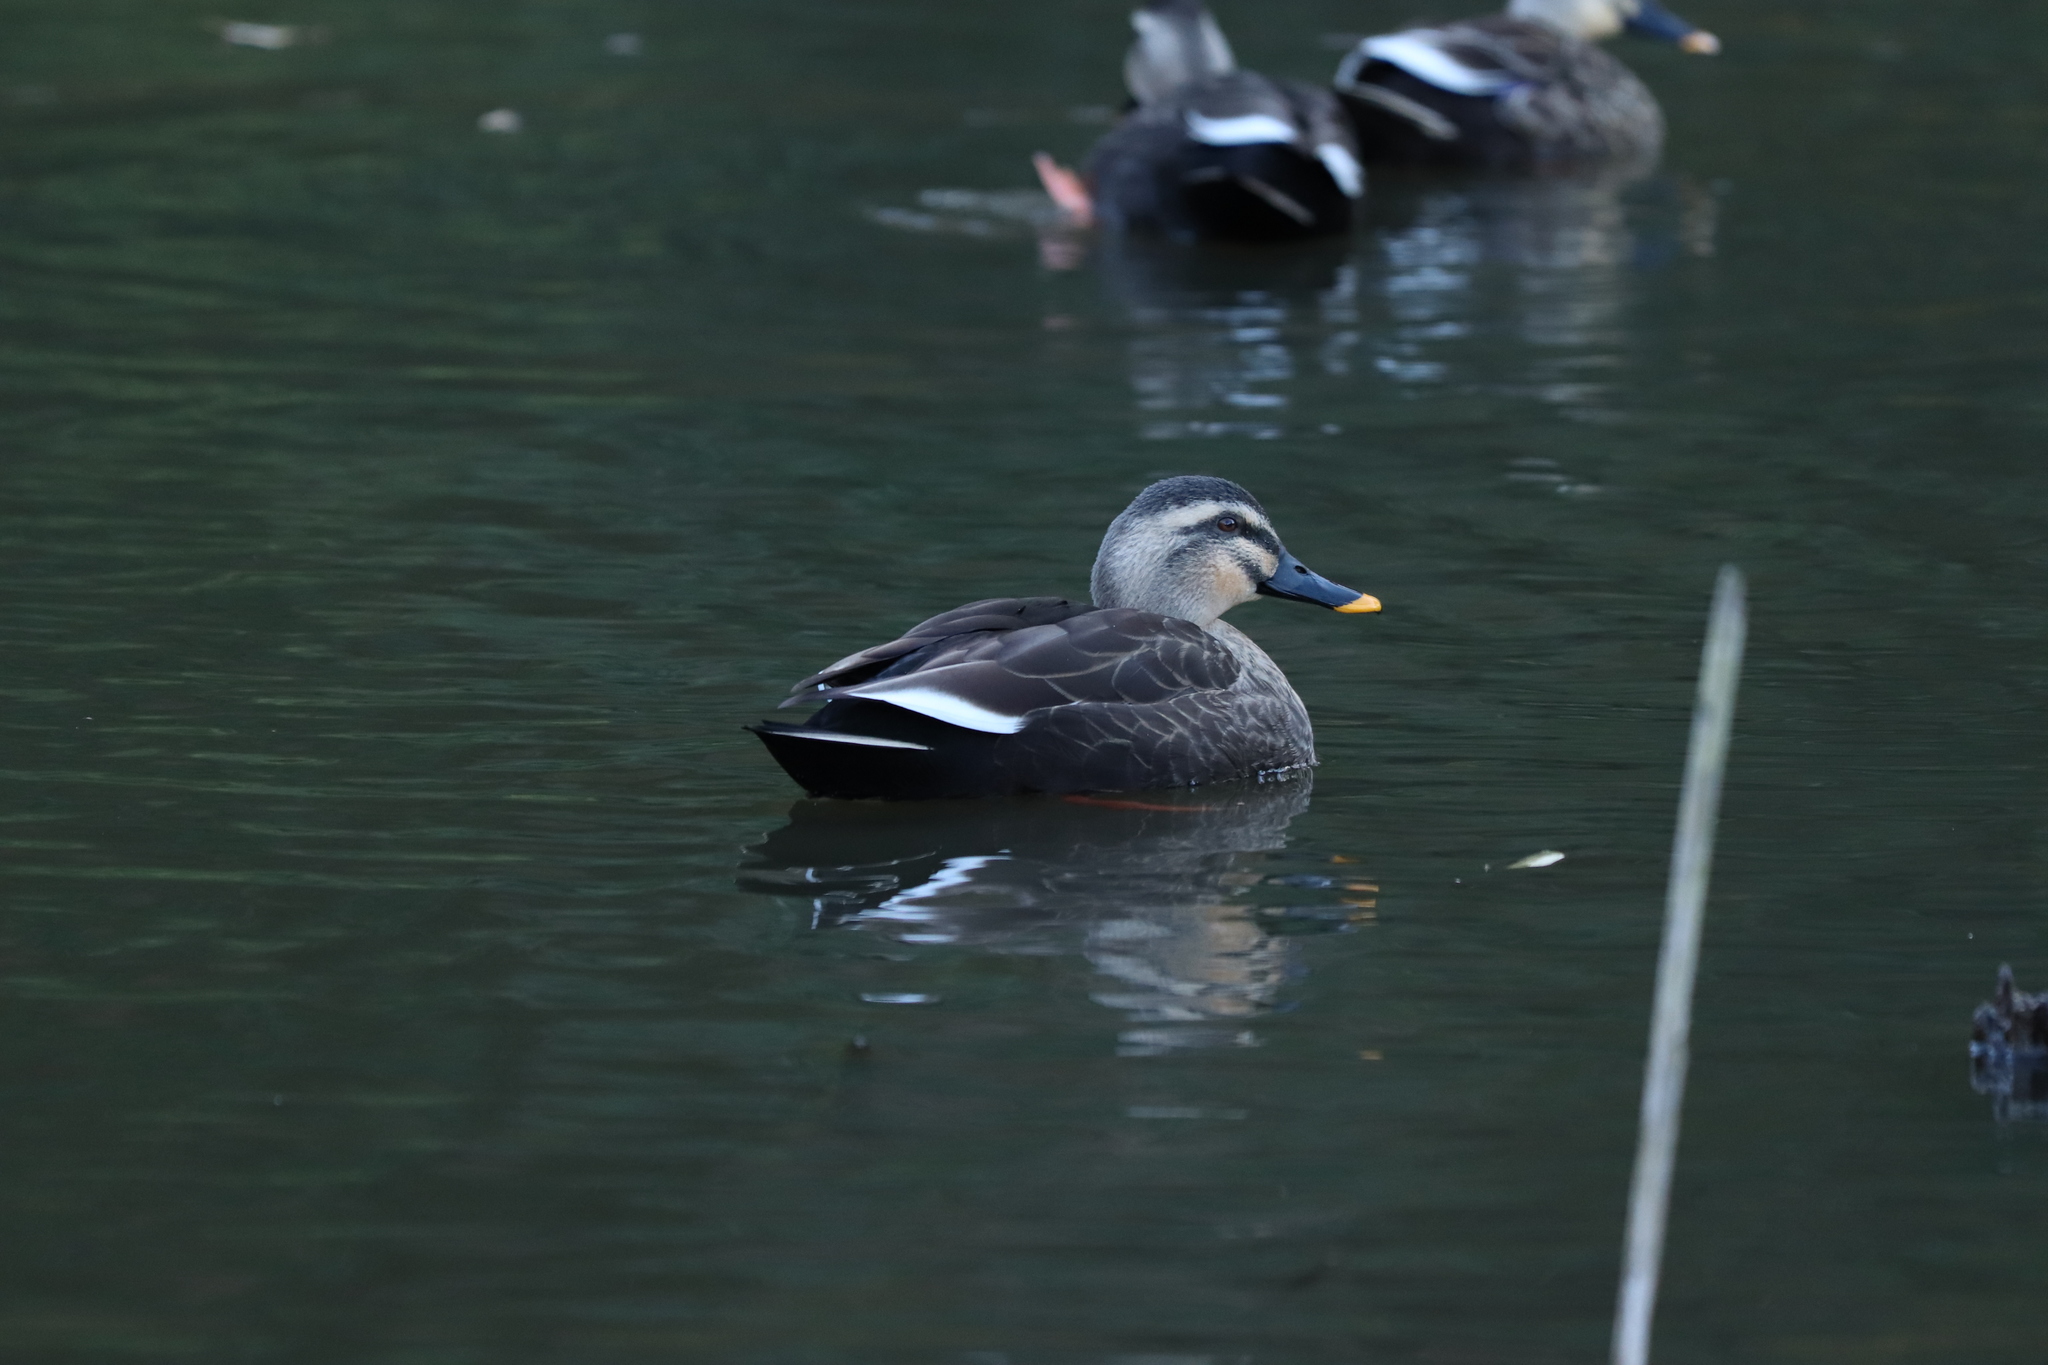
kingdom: Animalia
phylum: Chordata
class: Aves
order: Anseriformes
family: Anatidae
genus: Anas
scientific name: Anas zonorhyncha
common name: Eastern spot-billed duck
